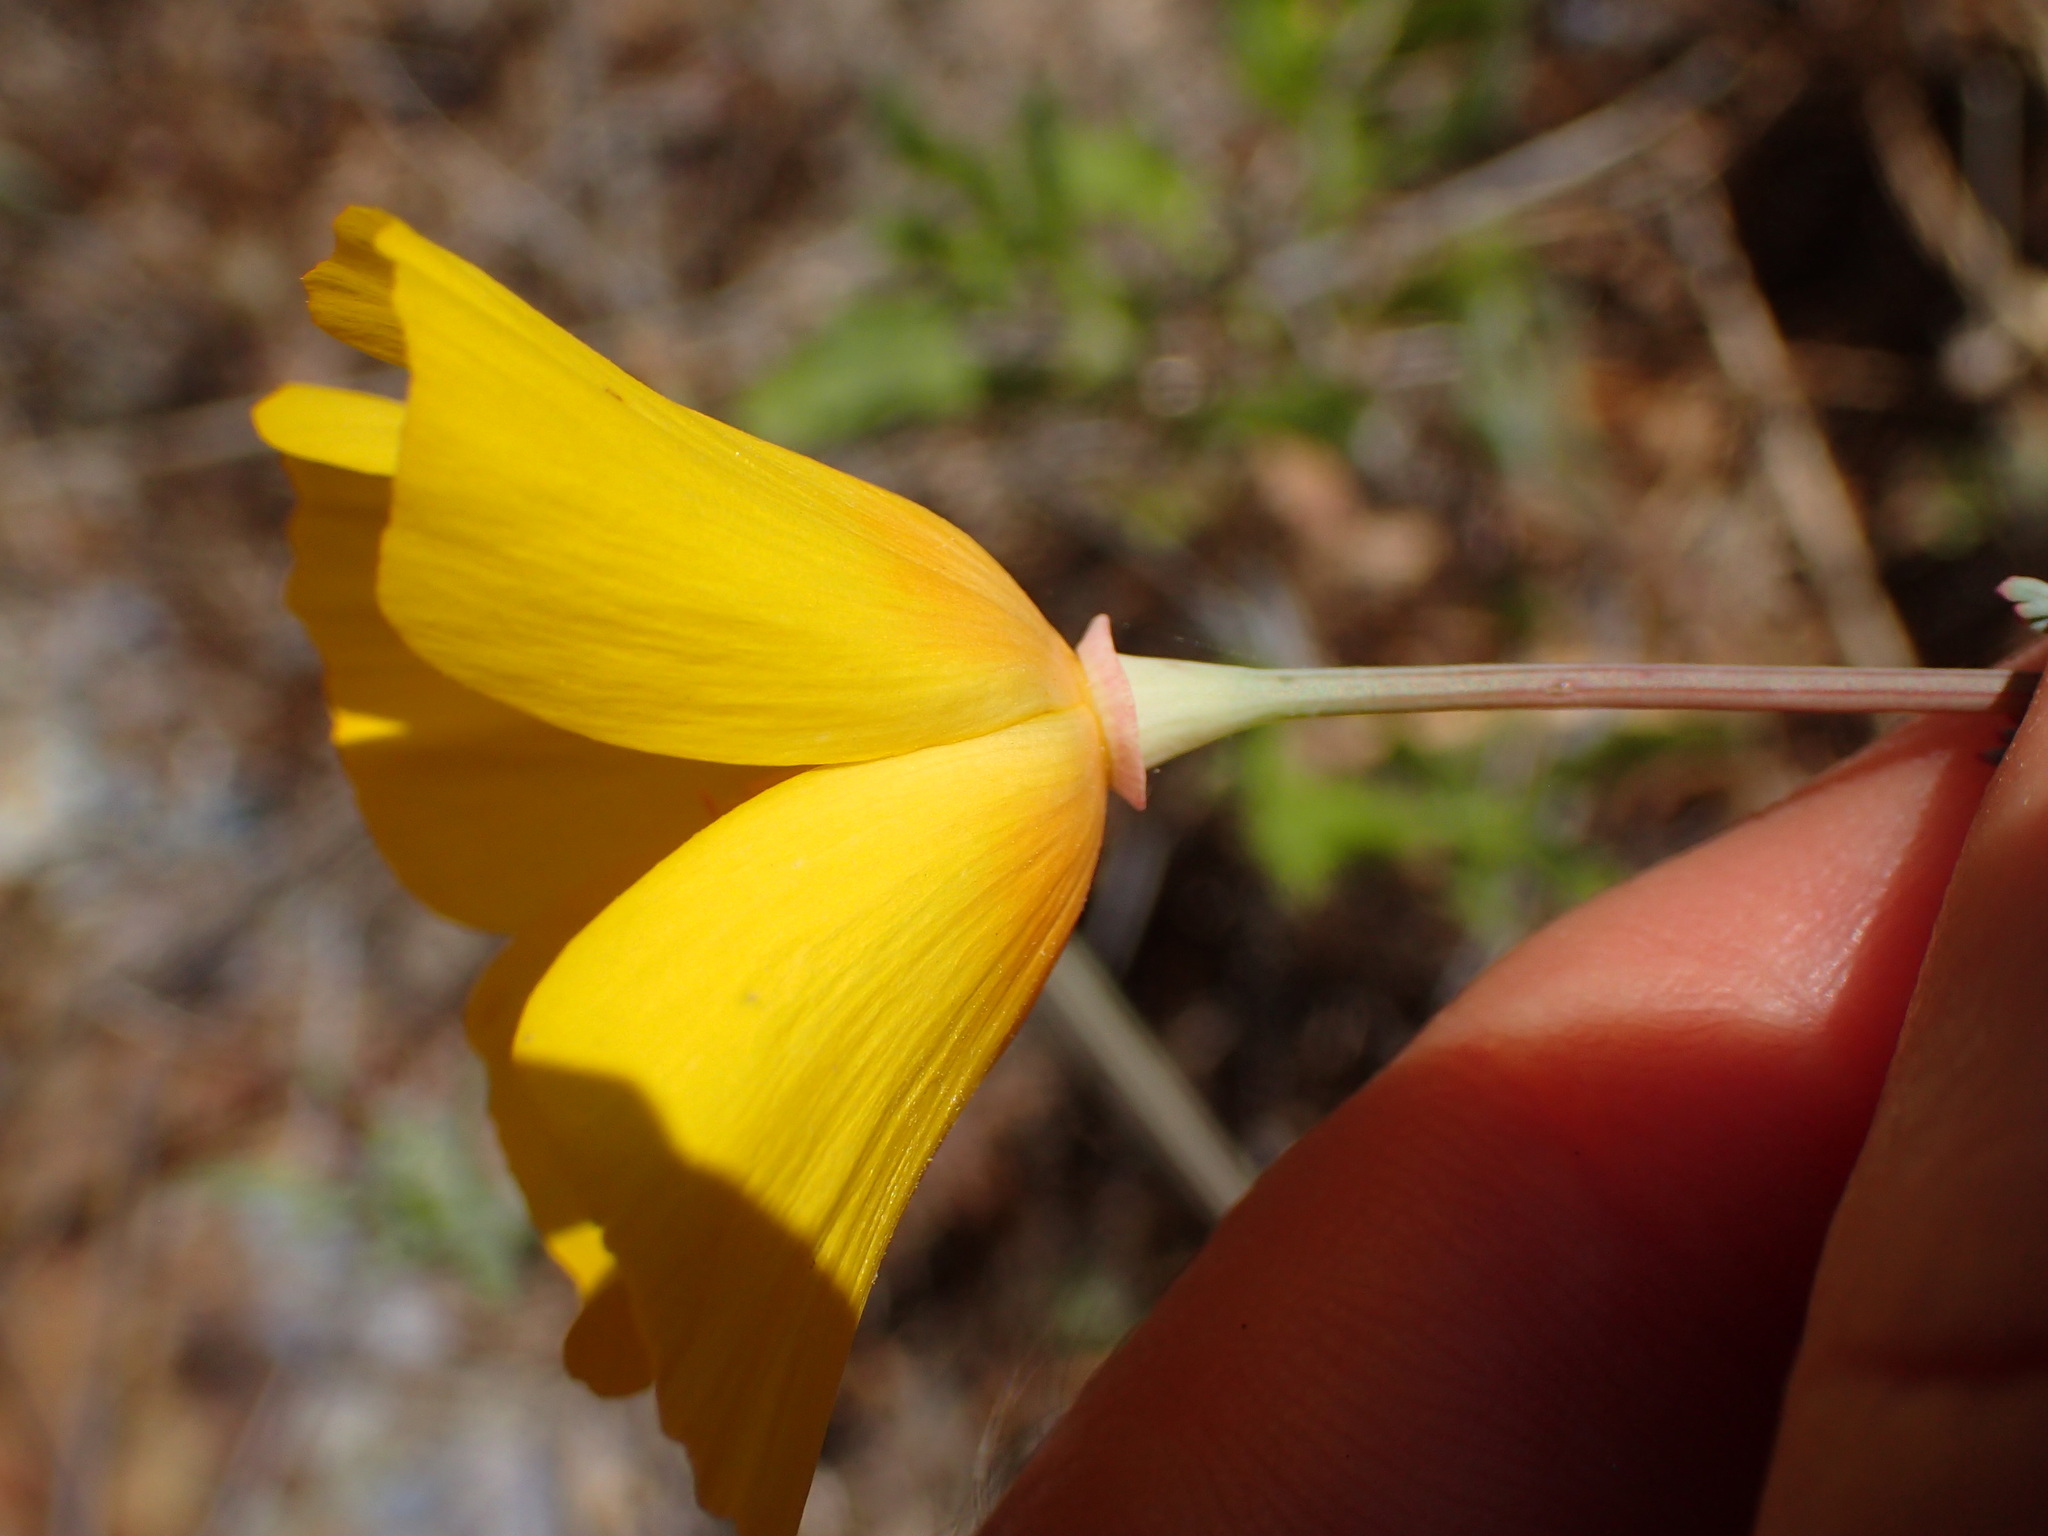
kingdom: Plantae
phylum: Tracheophyta
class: Magnoliopsida
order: Ranunculales
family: Papaveraceae
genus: Eschscholzia
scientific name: Eschscholzia californica
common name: California poppy
